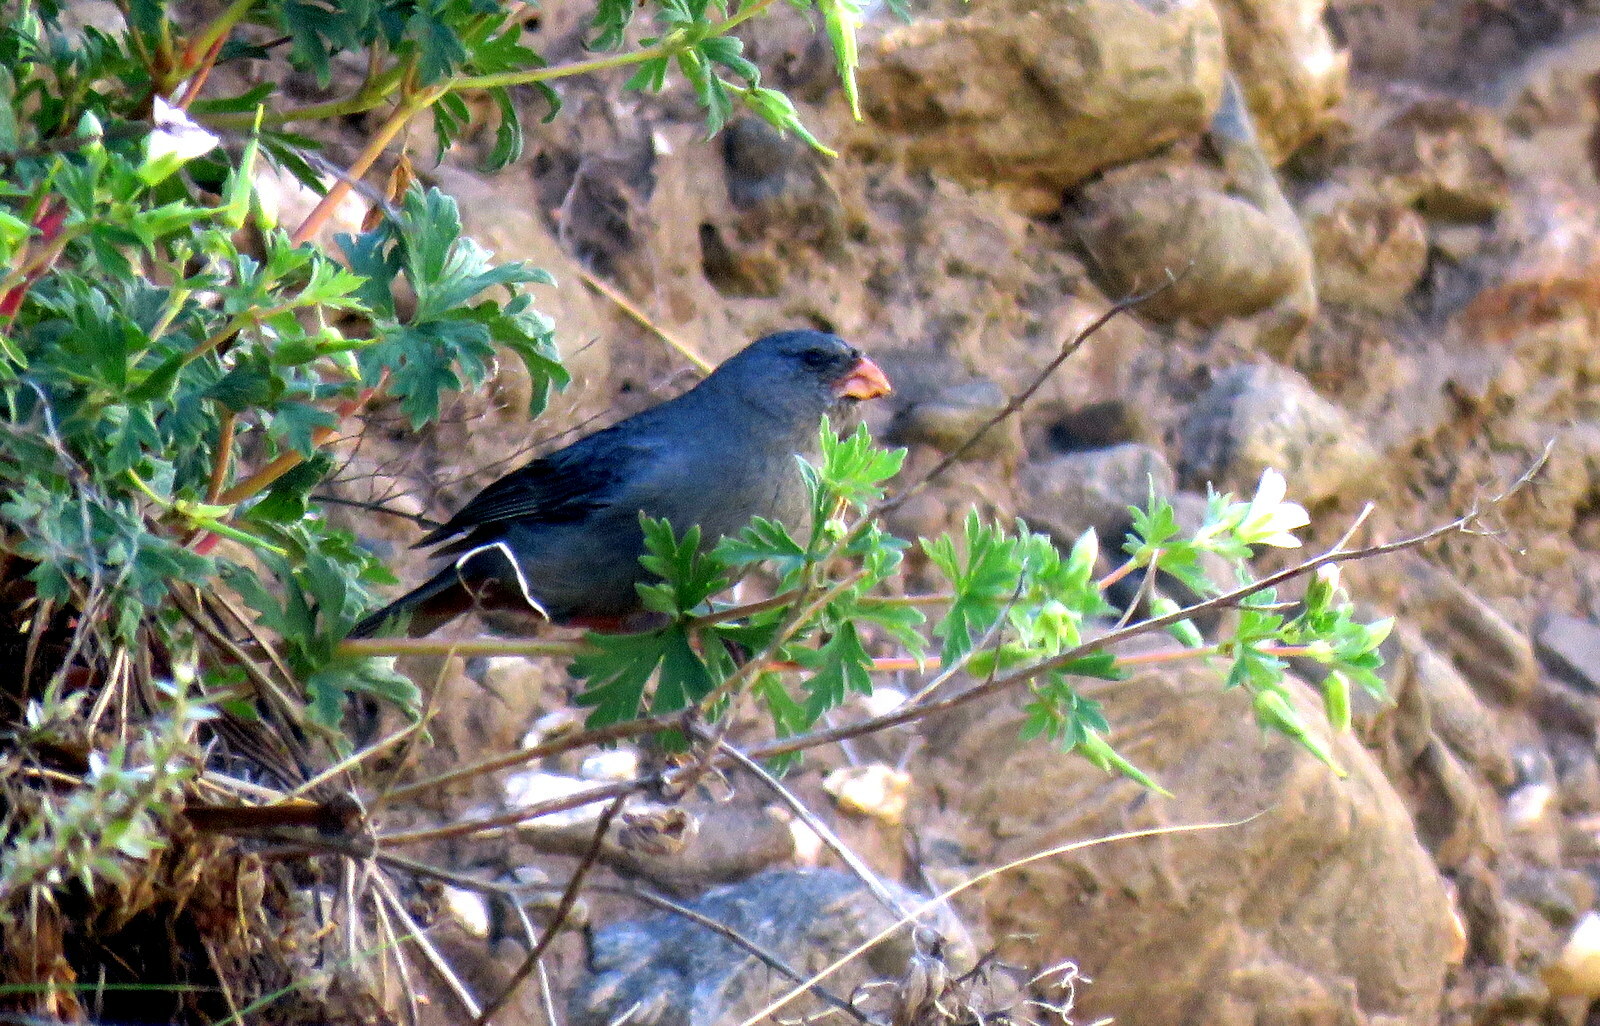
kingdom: Animalia
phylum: Chordata
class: Aves
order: Passeriformes
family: Thraupidae
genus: Catamenia
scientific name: Catamenia inornata
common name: Plain-colored seedeater
